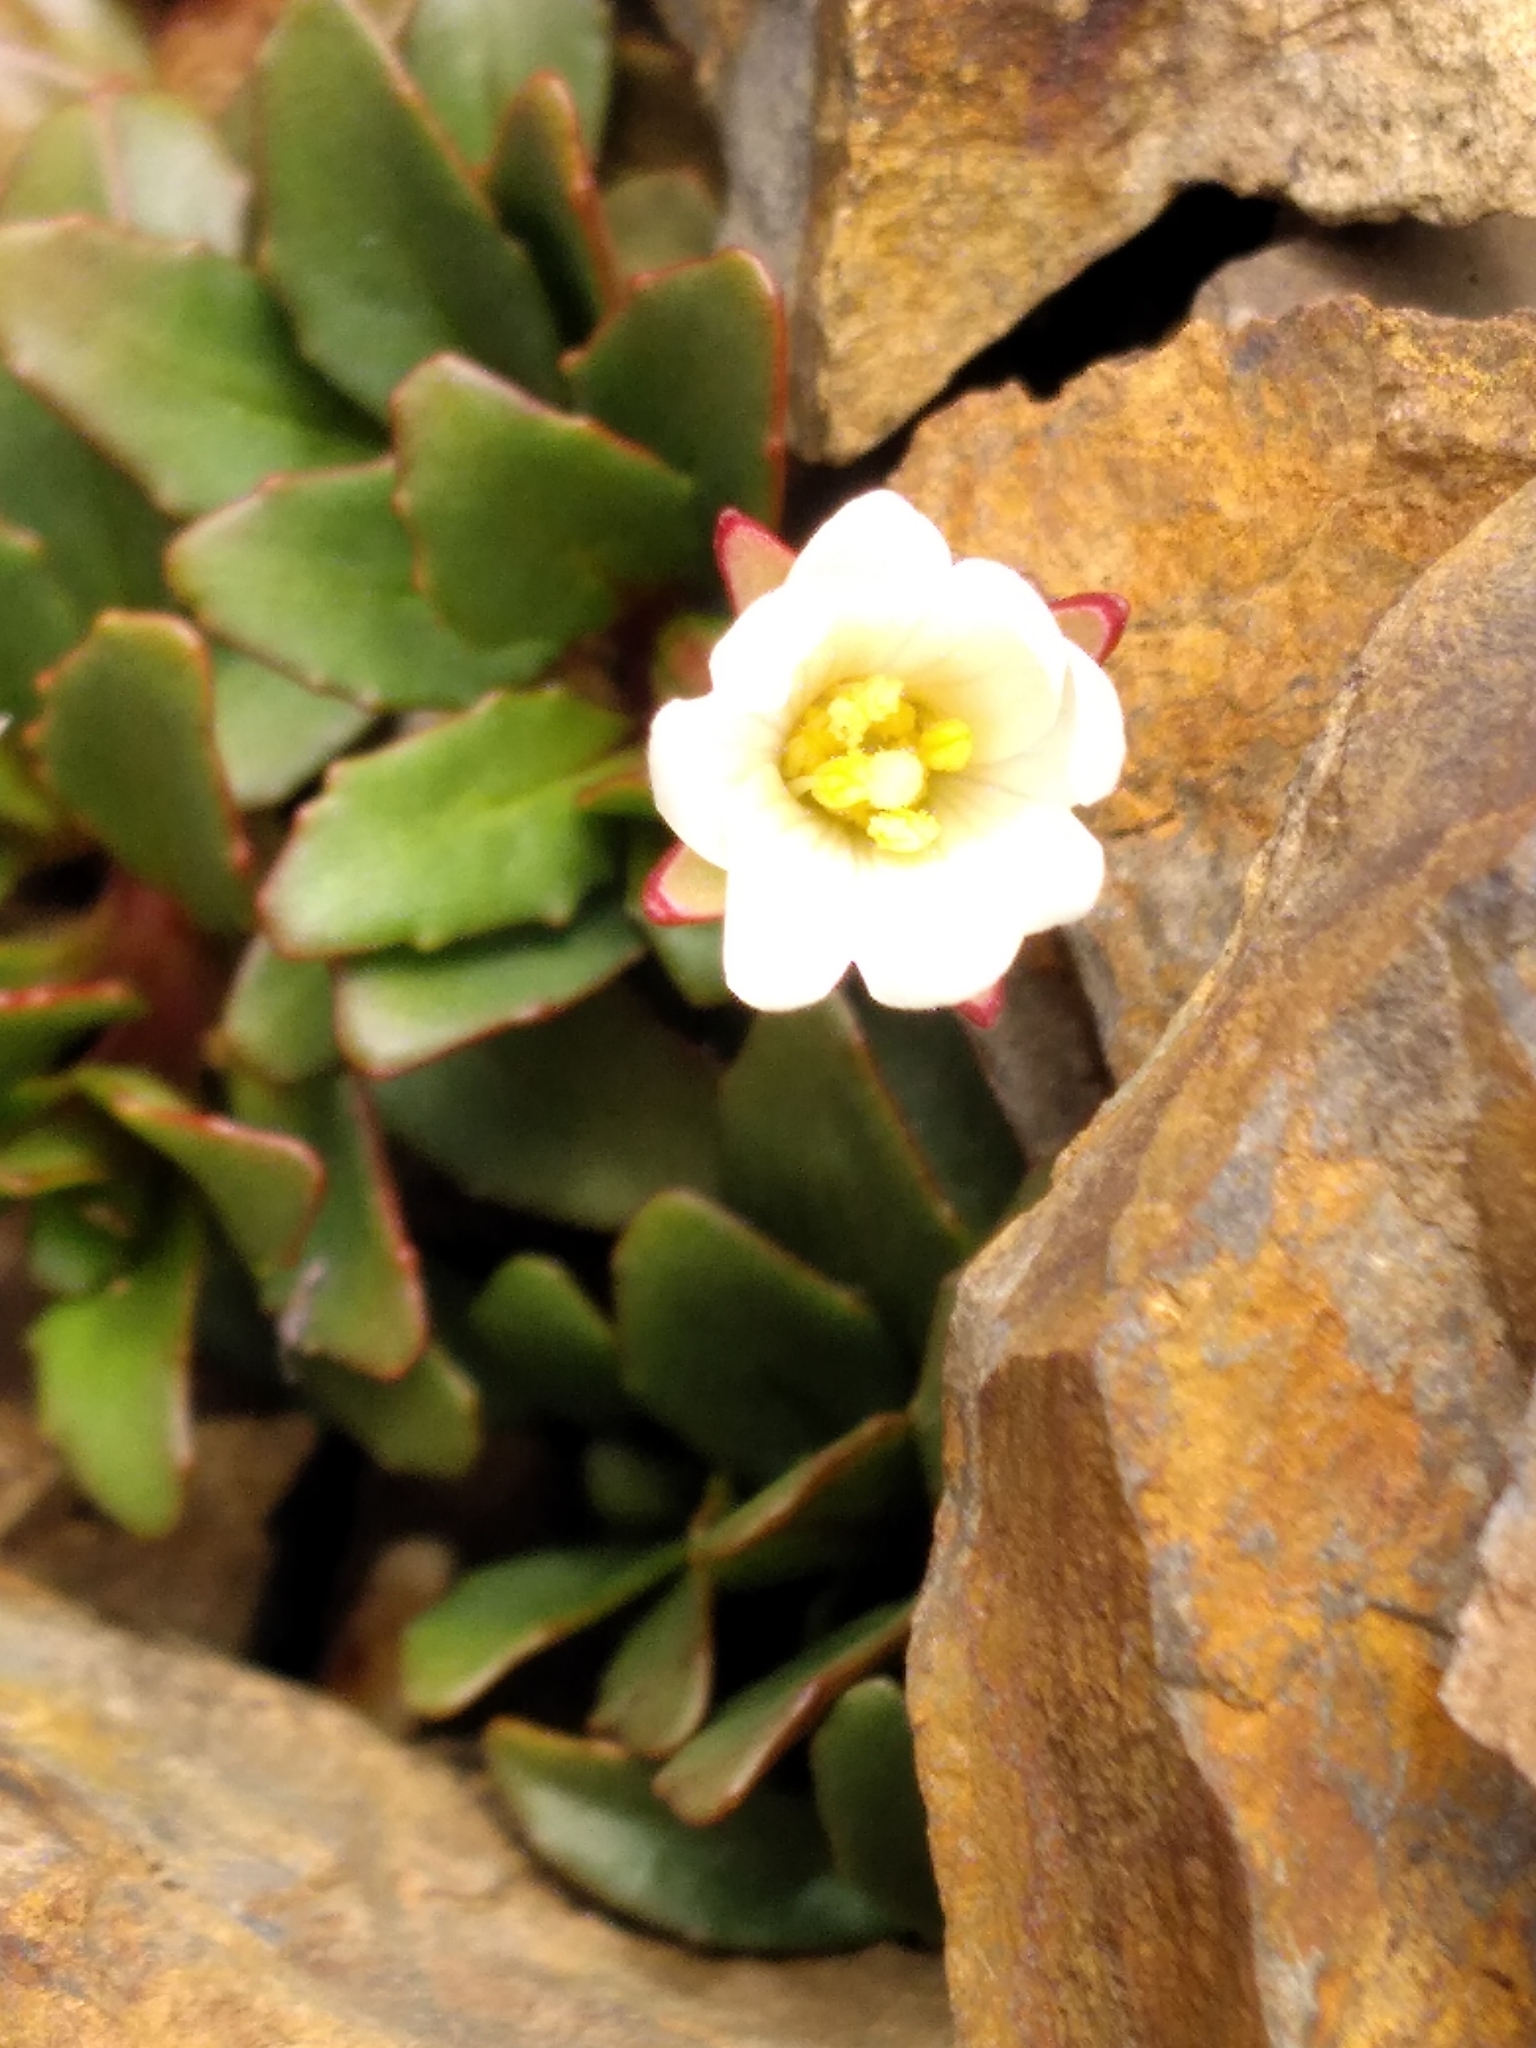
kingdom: Plantae
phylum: Tracheophyta
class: Magnoliopsida
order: Myrtales
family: Onagraceae
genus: Epilobium
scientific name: Epilobium margaretiae
